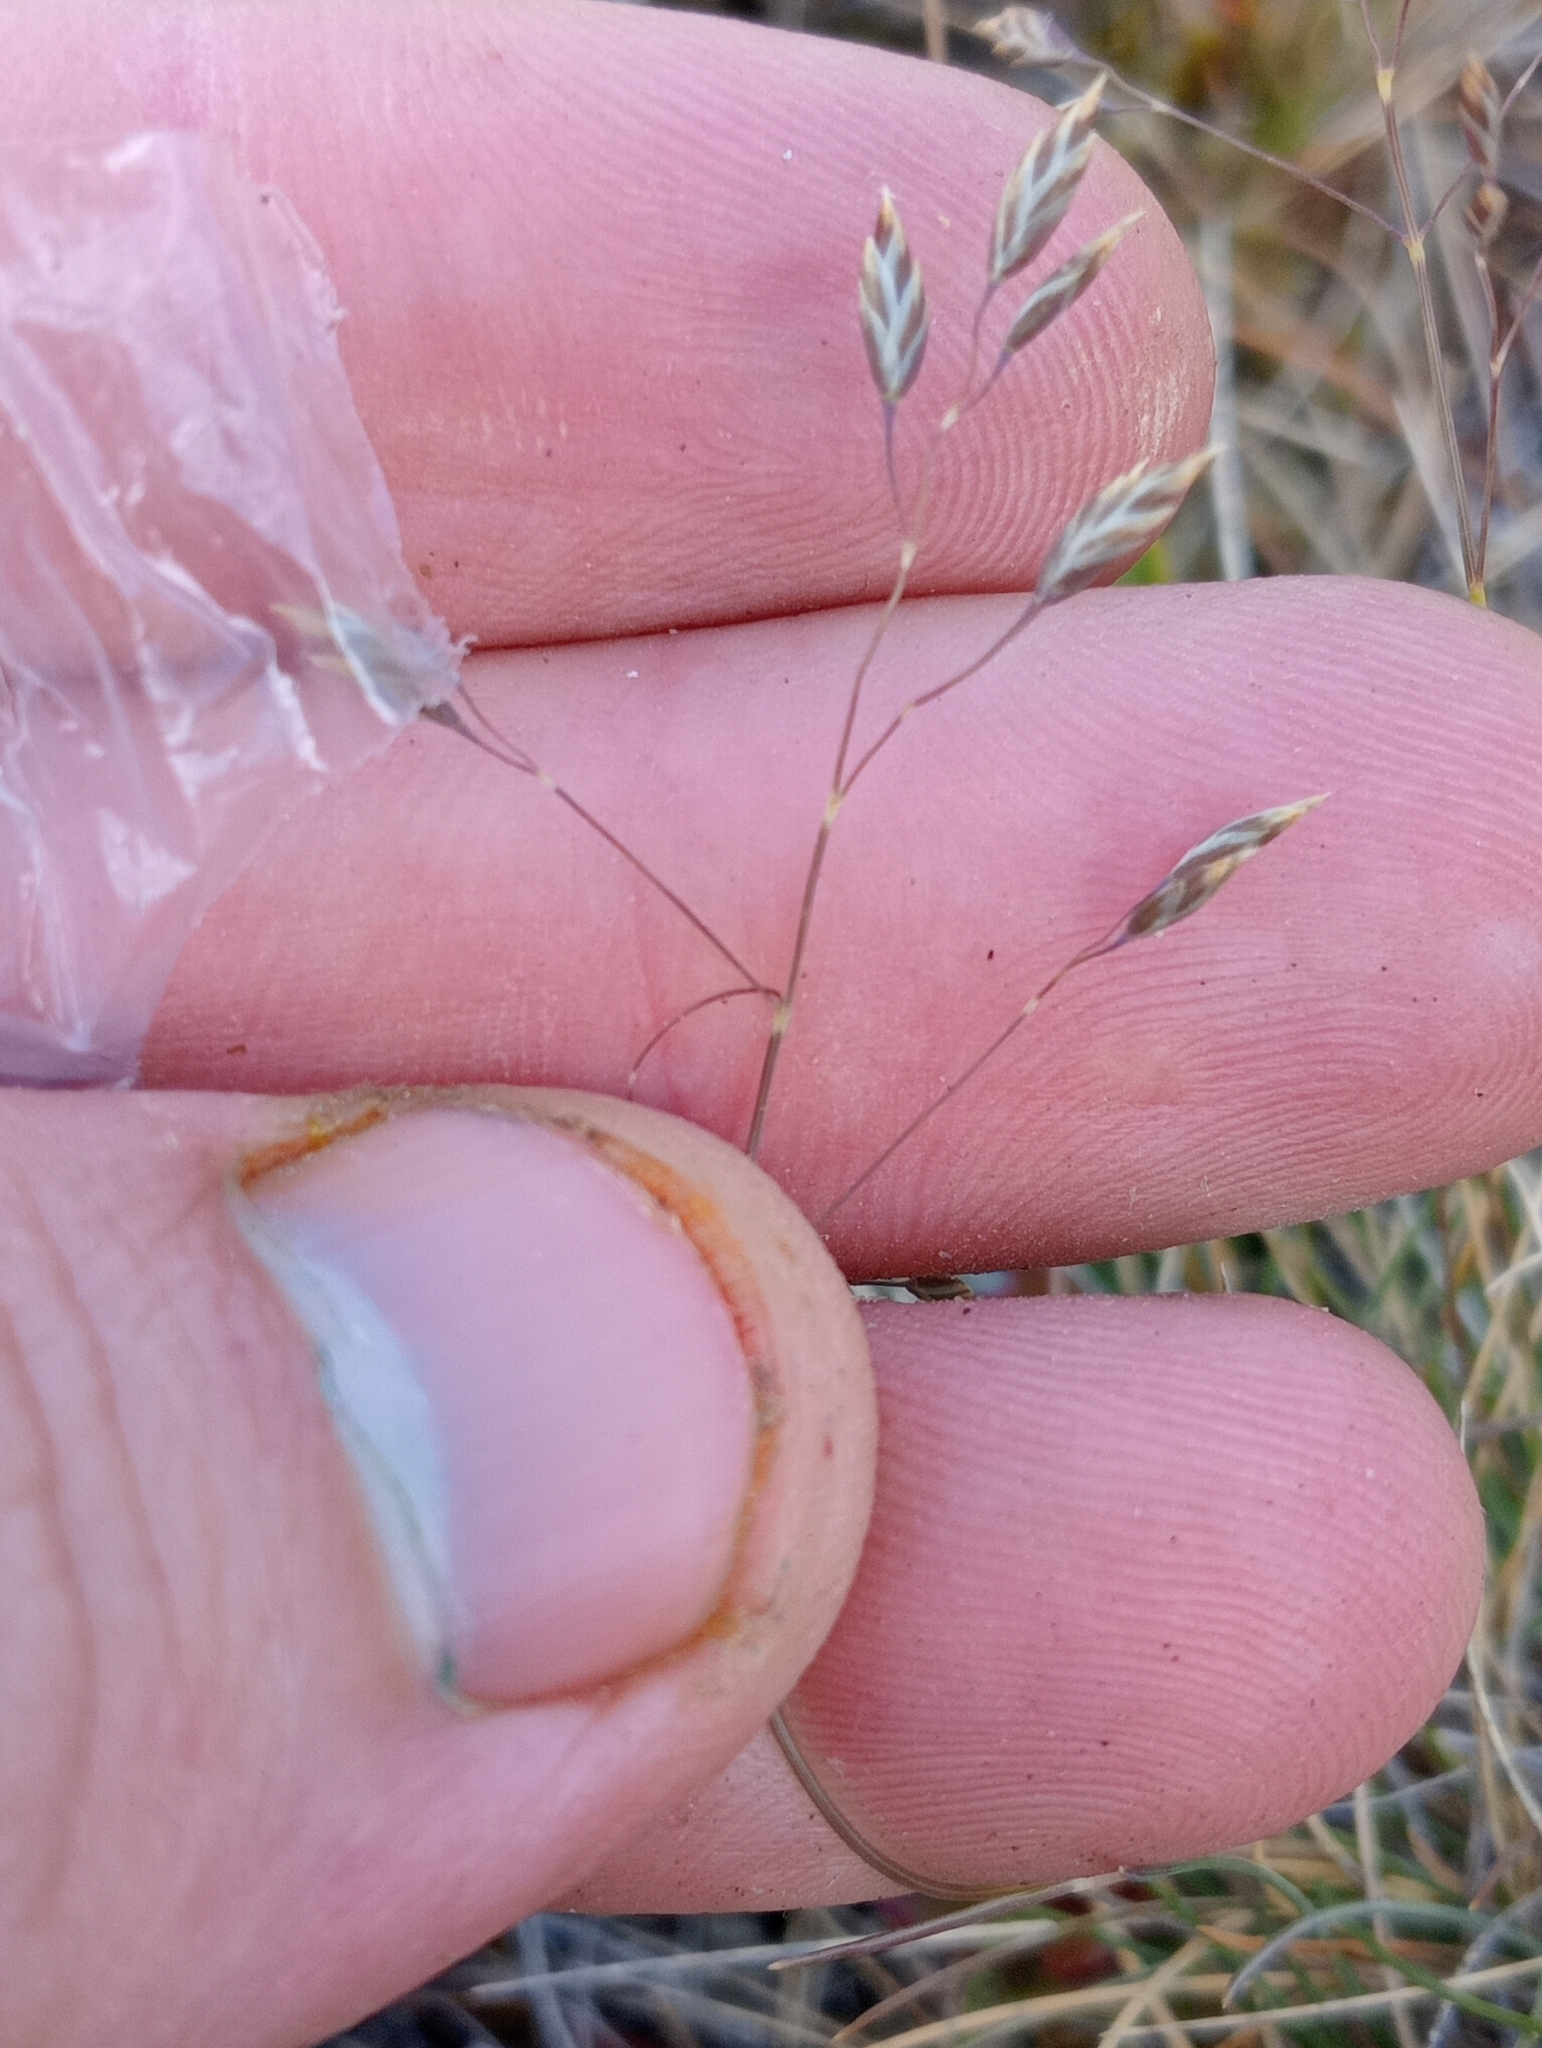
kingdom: Plantae
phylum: Tracheophyta
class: Liliopsida
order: Poales
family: Poaceae
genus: Poa
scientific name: Poa colensoi
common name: Blue tussock
